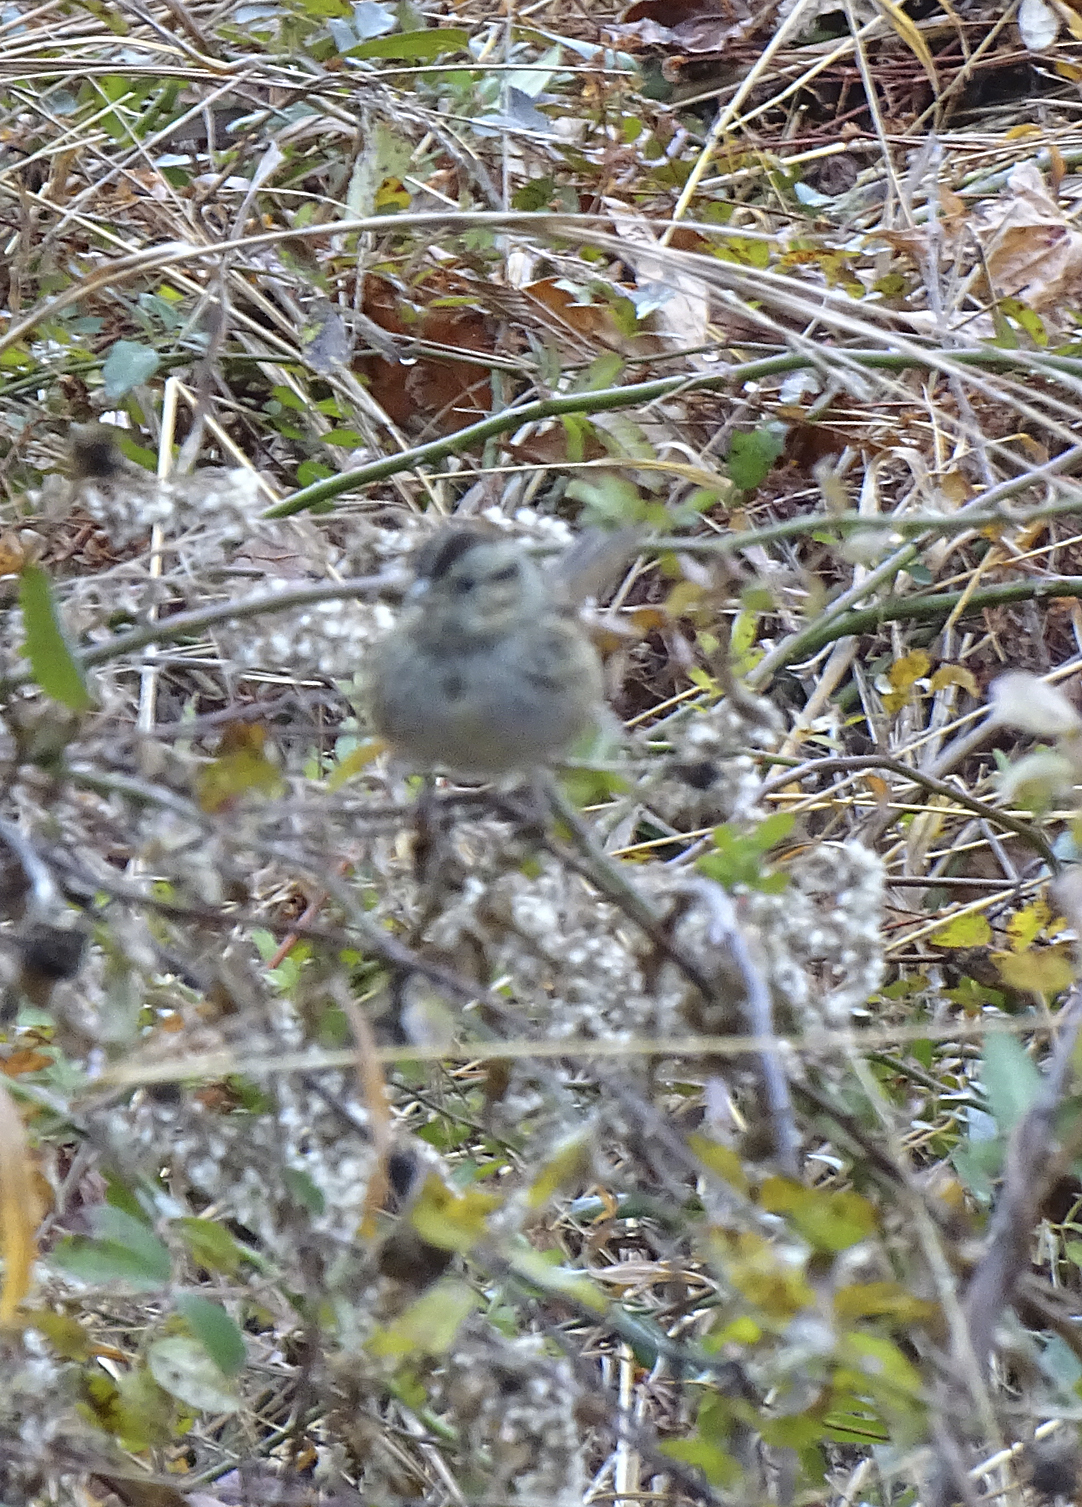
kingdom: Animalia
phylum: Chordata
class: Aves
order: Passeriformes
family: Passerellidae
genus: Melospiza
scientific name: Melospiza georgiana
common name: Swamp sparrow
